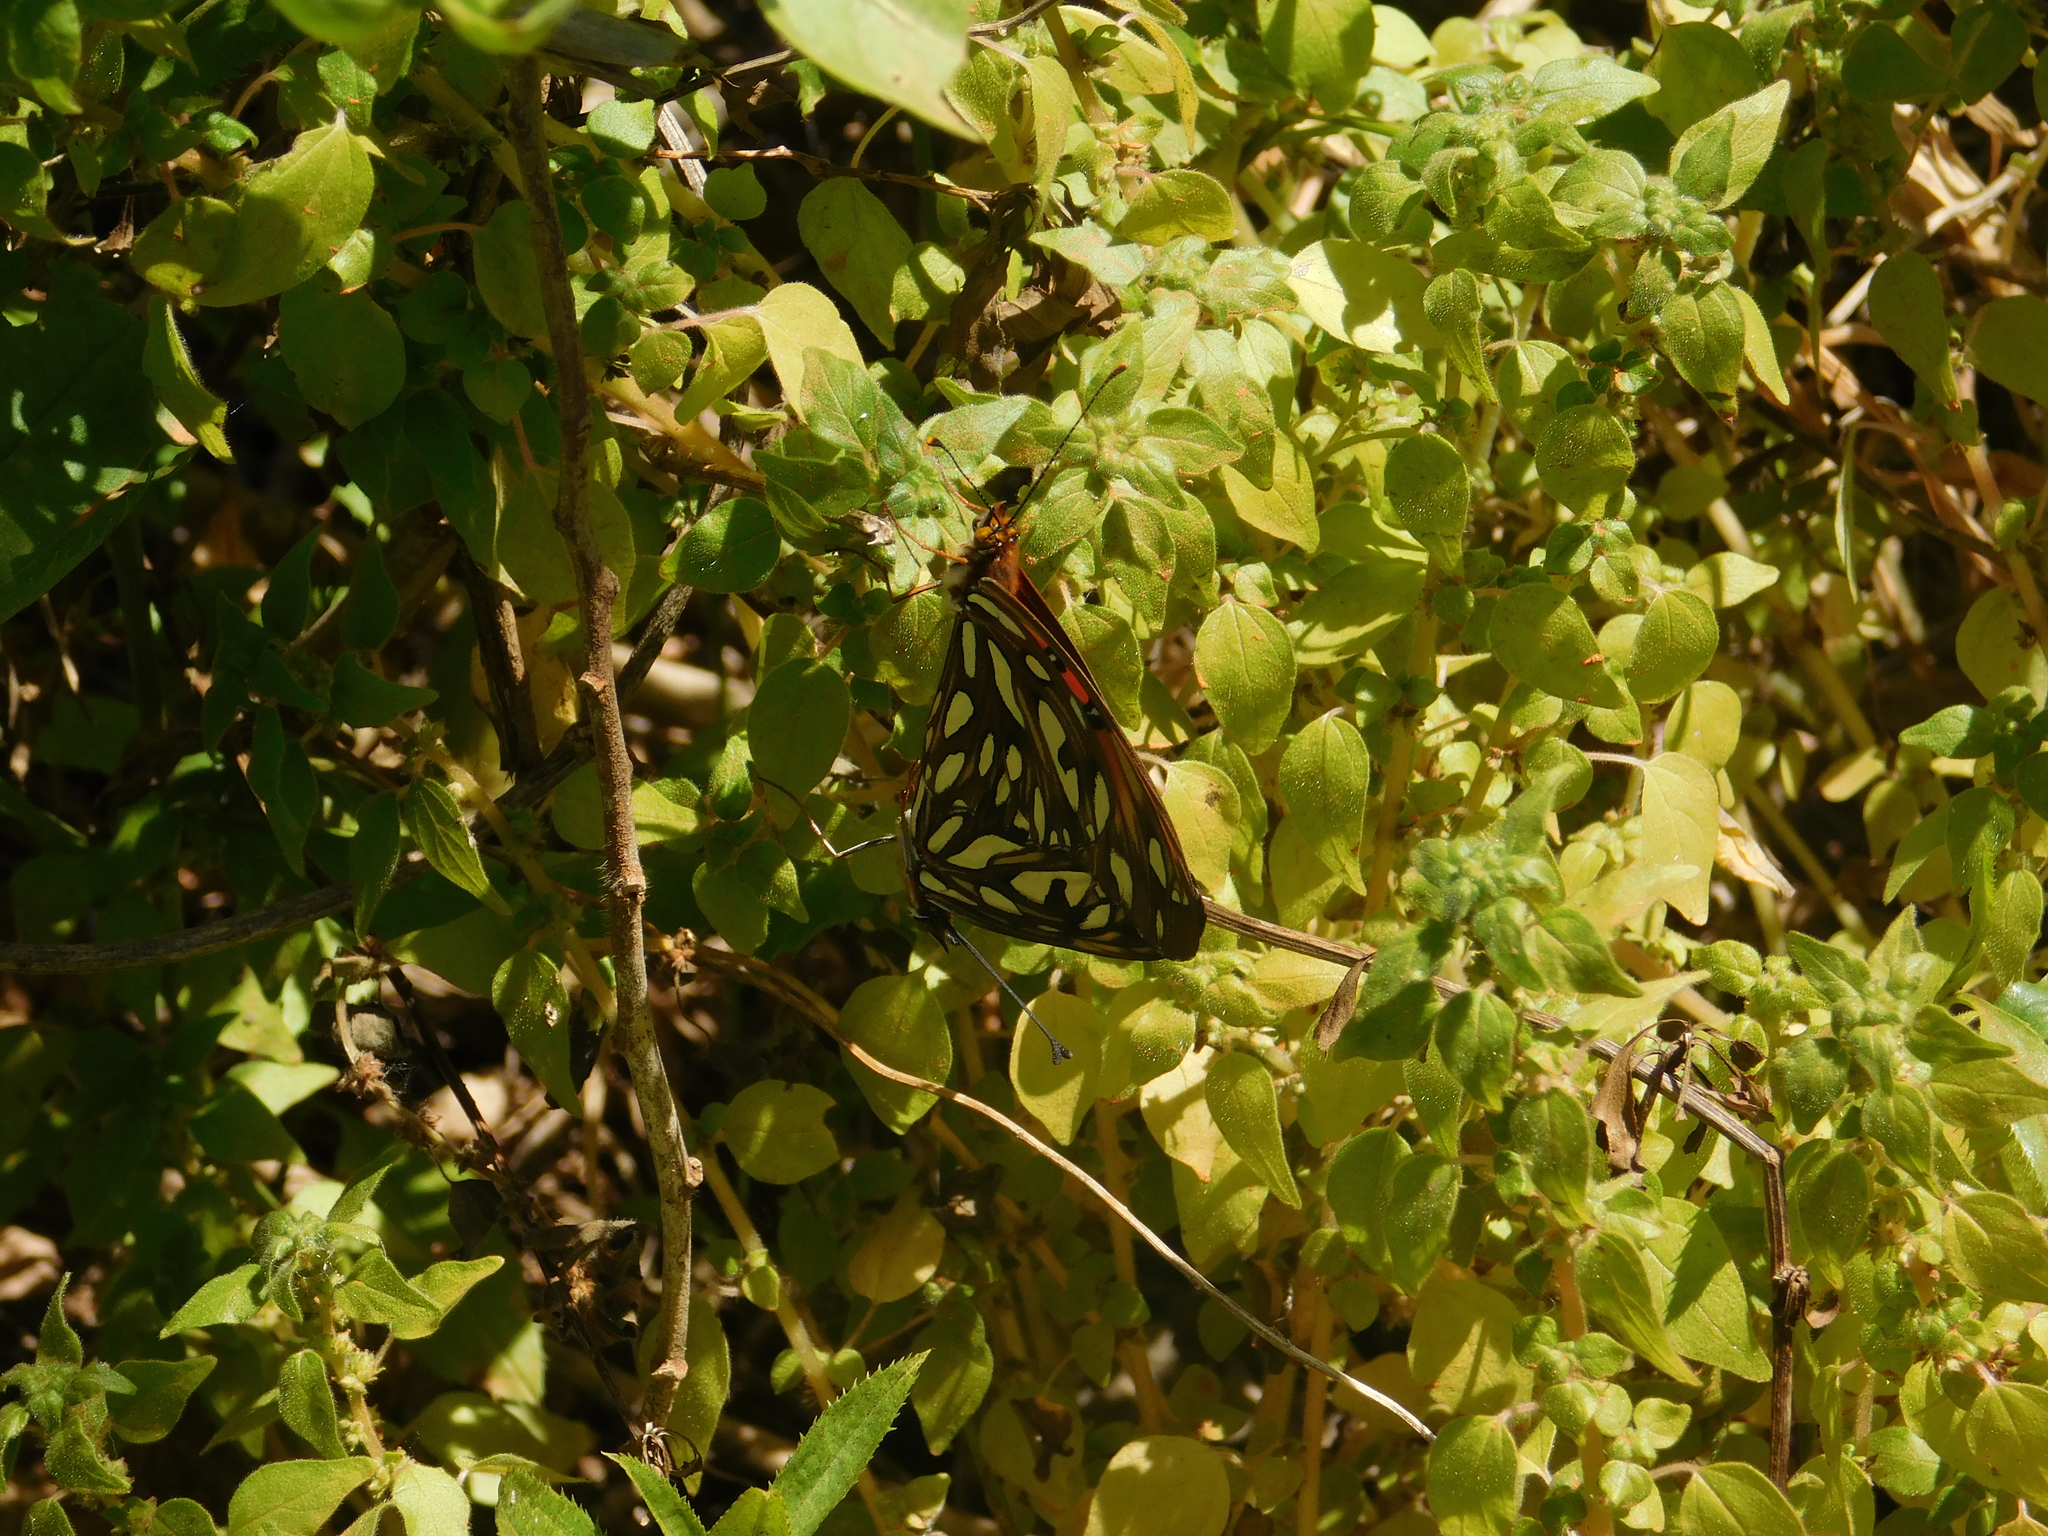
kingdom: Animalia
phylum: Arthropoda
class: Insecta
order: Lepidoptera
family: Nymphalidae
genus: Dione
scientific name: Dione vanillae
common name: Gulf fritillary
